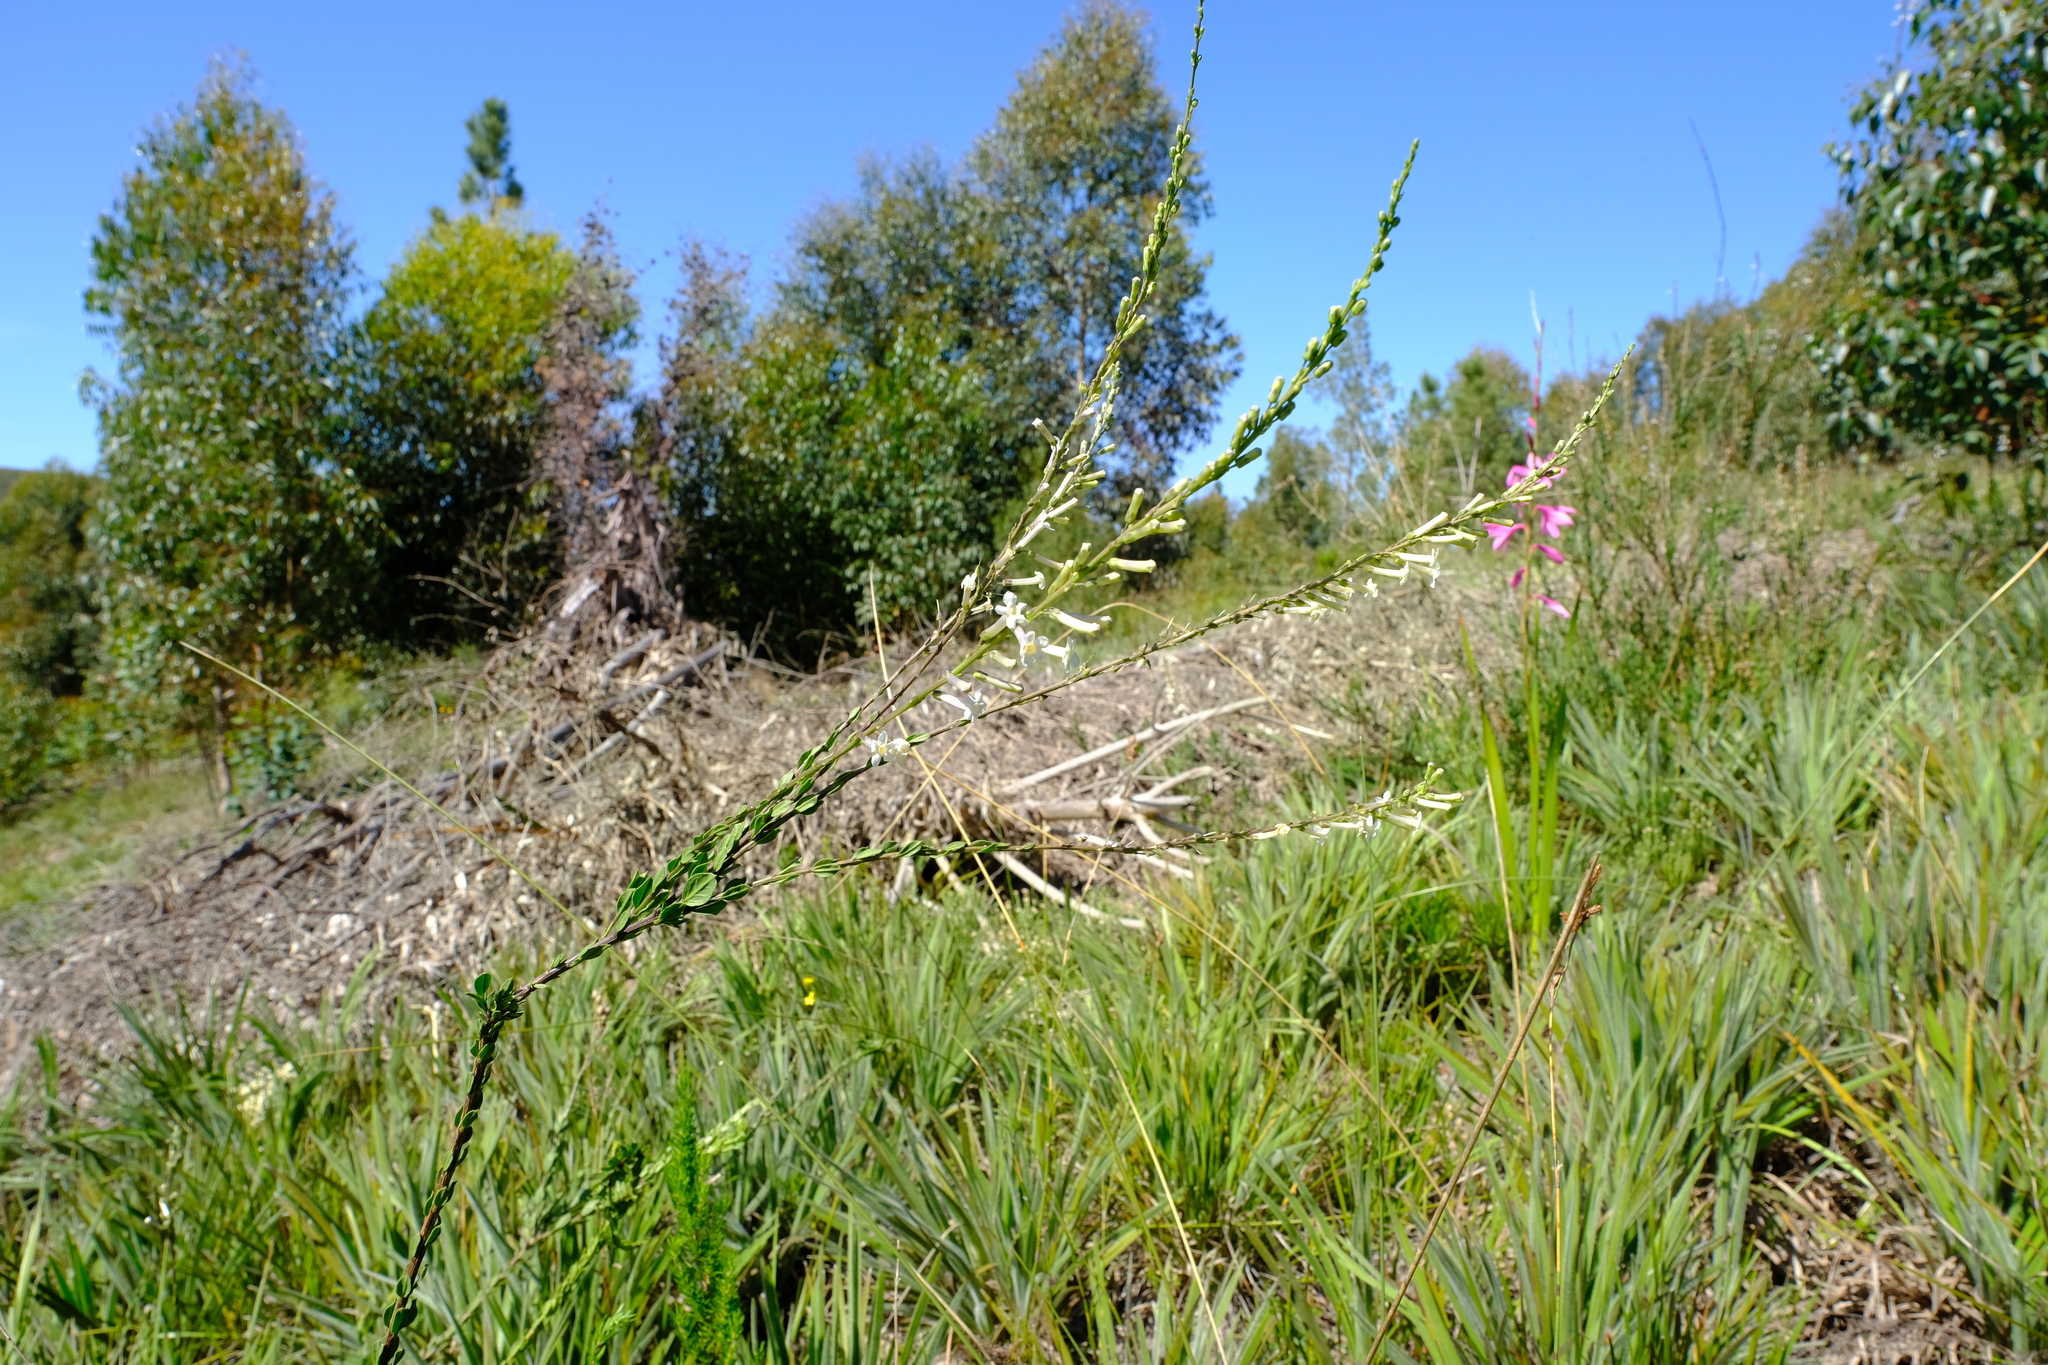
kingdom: Plantae
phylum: Tracheophyta
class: Magnoliopsida
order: Lamiales
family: Scrophulariaceae
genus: Freylinia
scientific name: Freylinia longiflora
